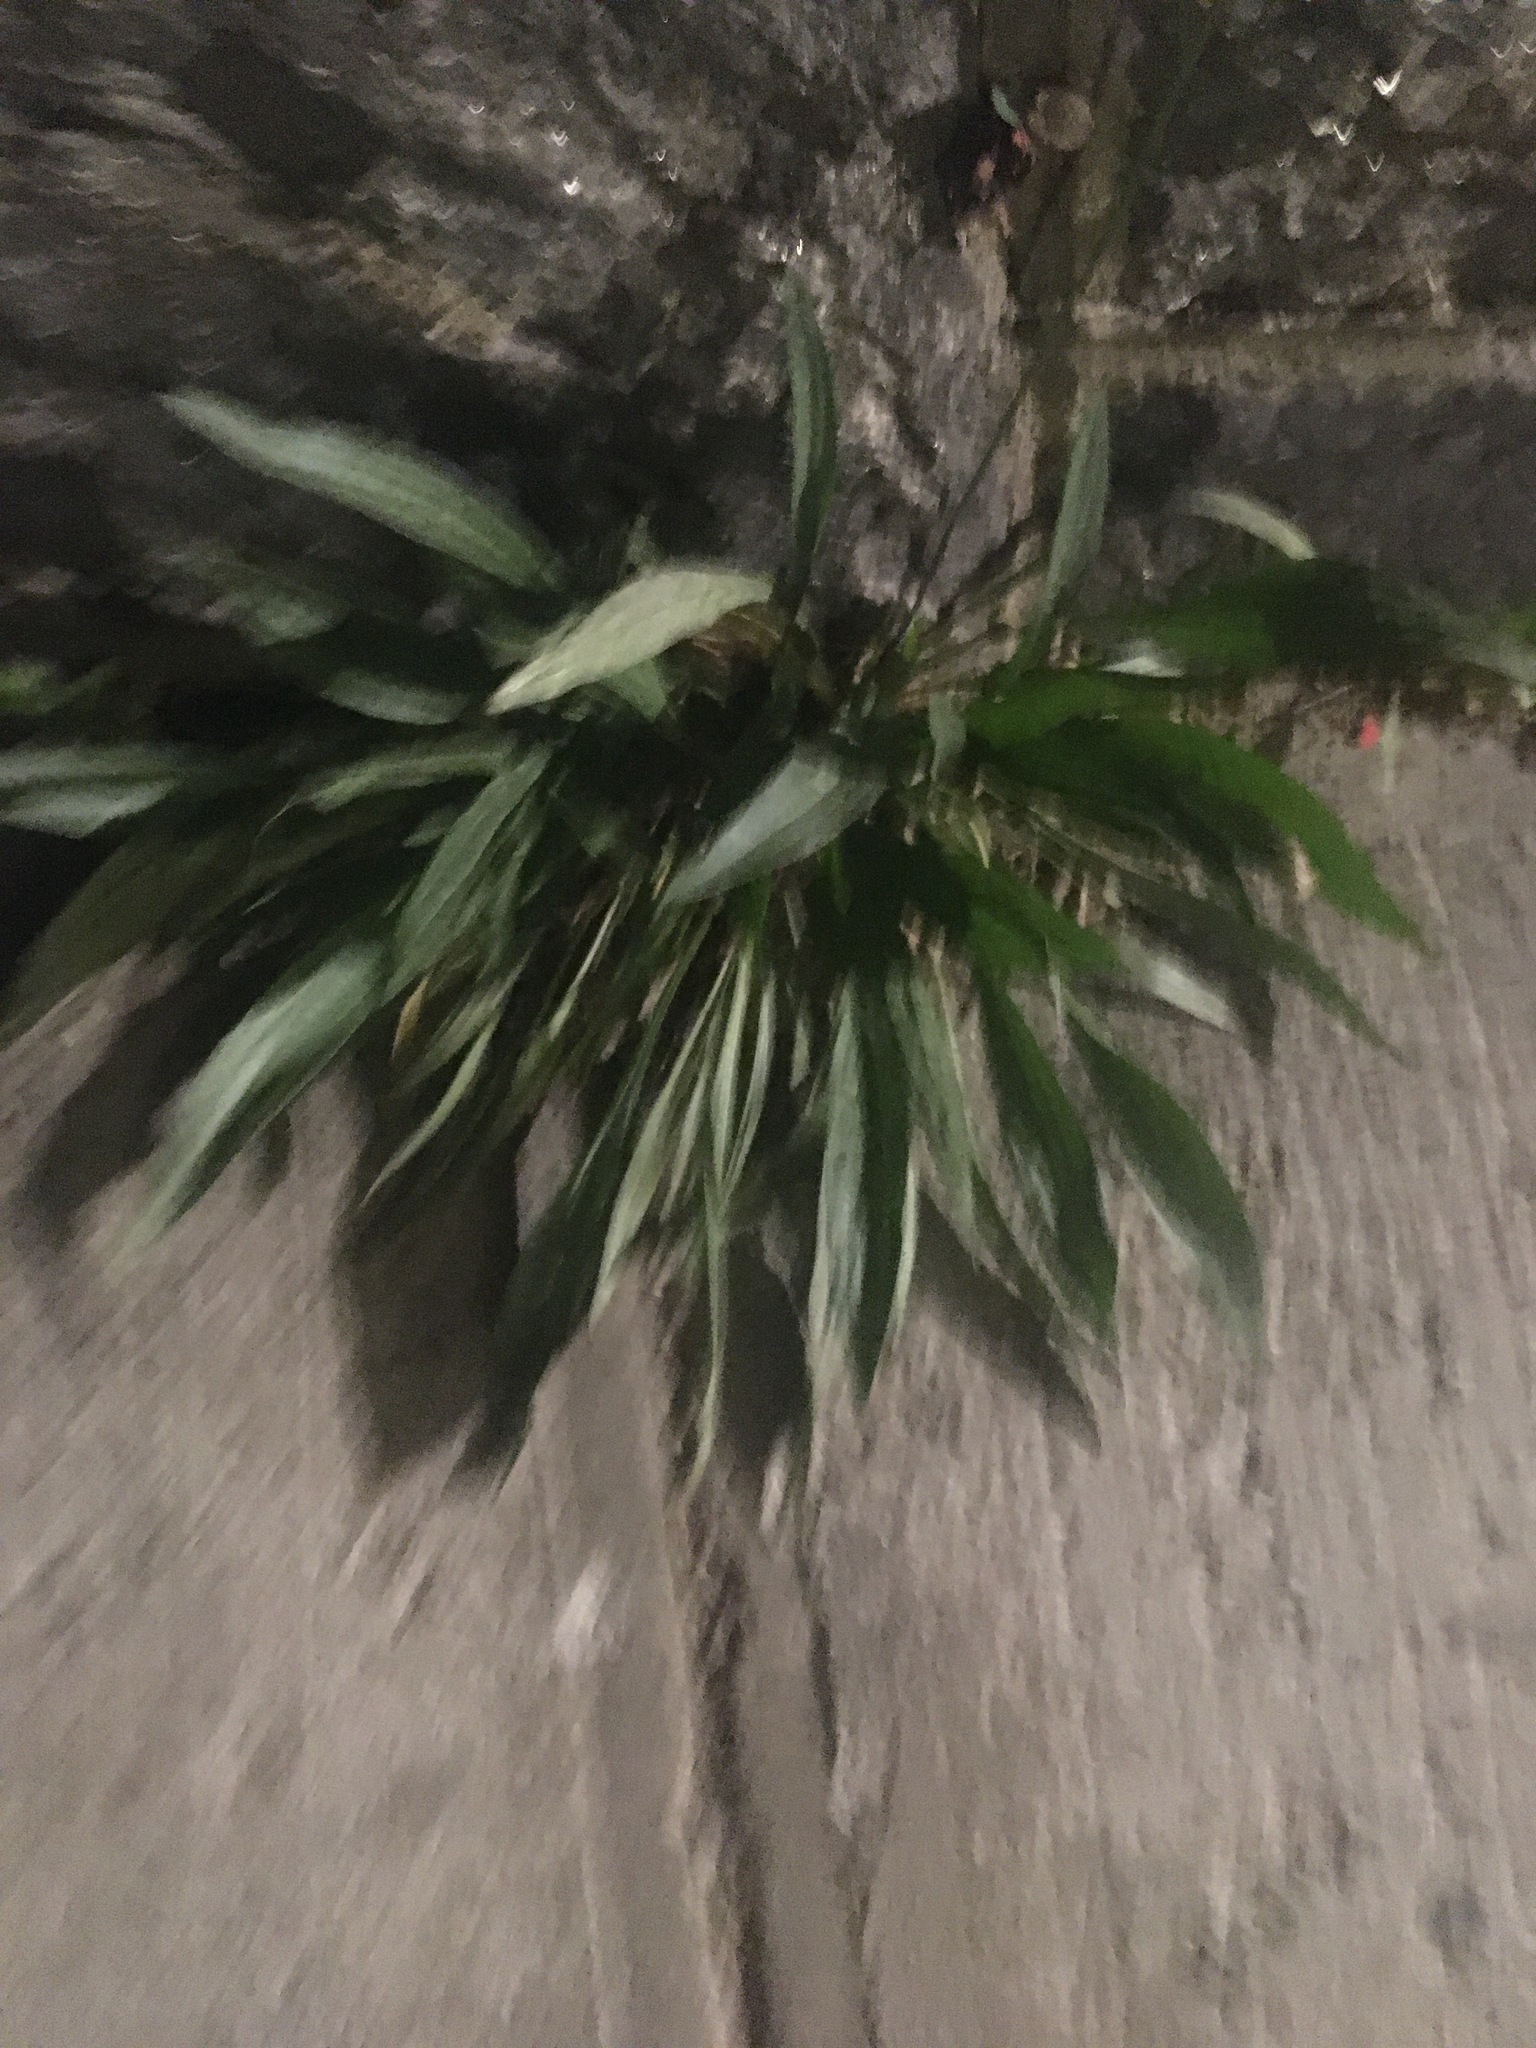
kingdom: Plantae
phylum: Tracheophyta
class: Magnoliopsida
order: Lamiales
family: Plantaginaceae
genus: Plantago
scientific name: Plantago lanceolata
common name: Ribwort plantain
